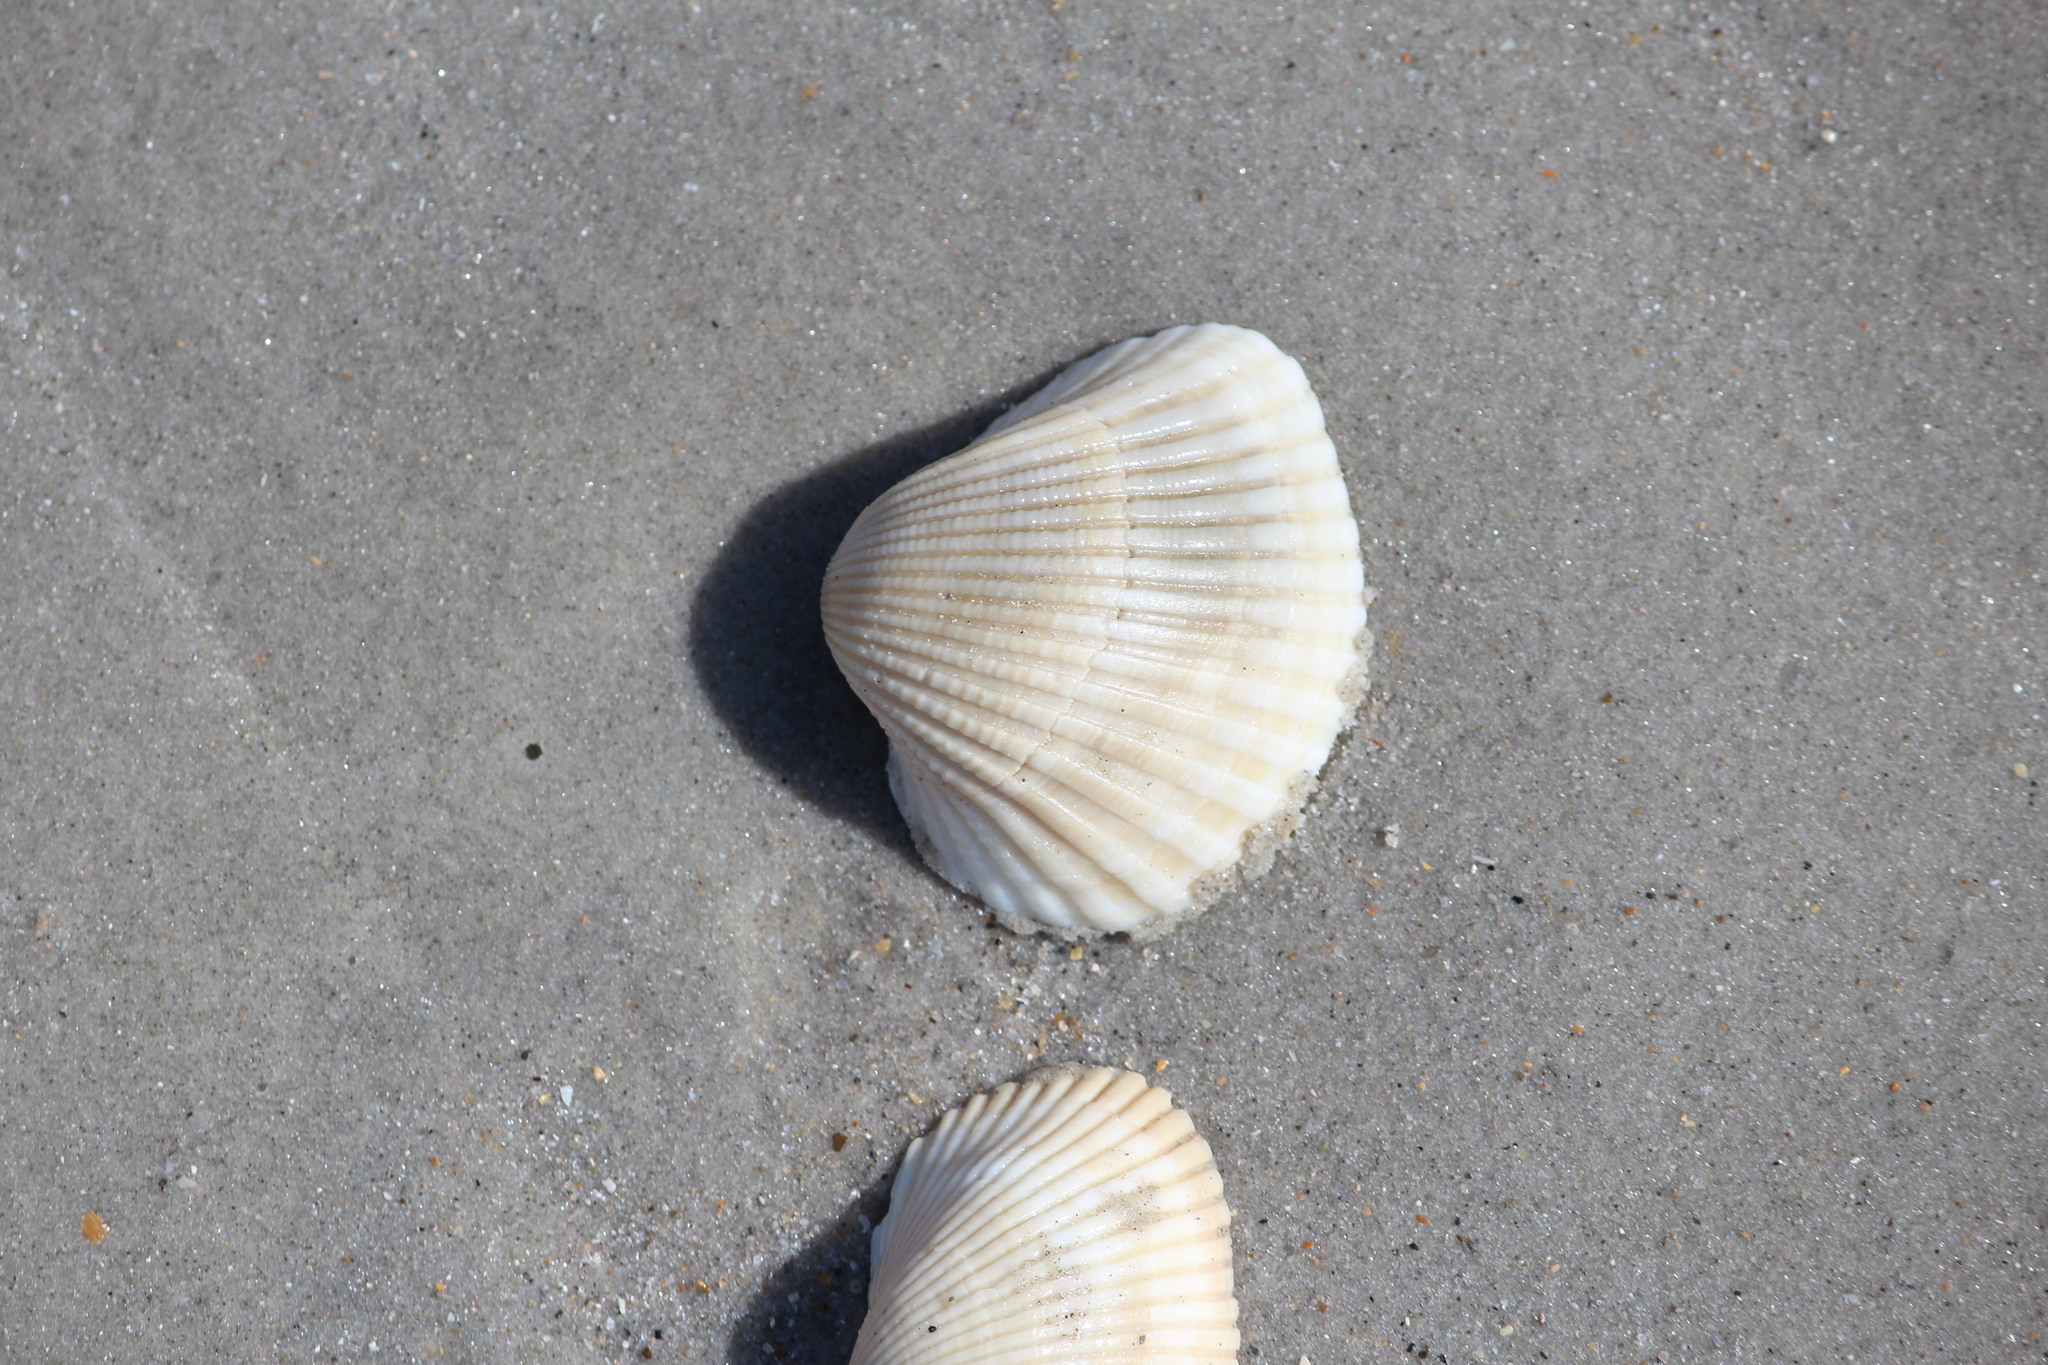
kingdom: Animalia
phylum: Mollusca
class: Bivalvia
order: Arcida
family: Arcidae
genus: Anadara
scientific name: Anadara brasiliana
